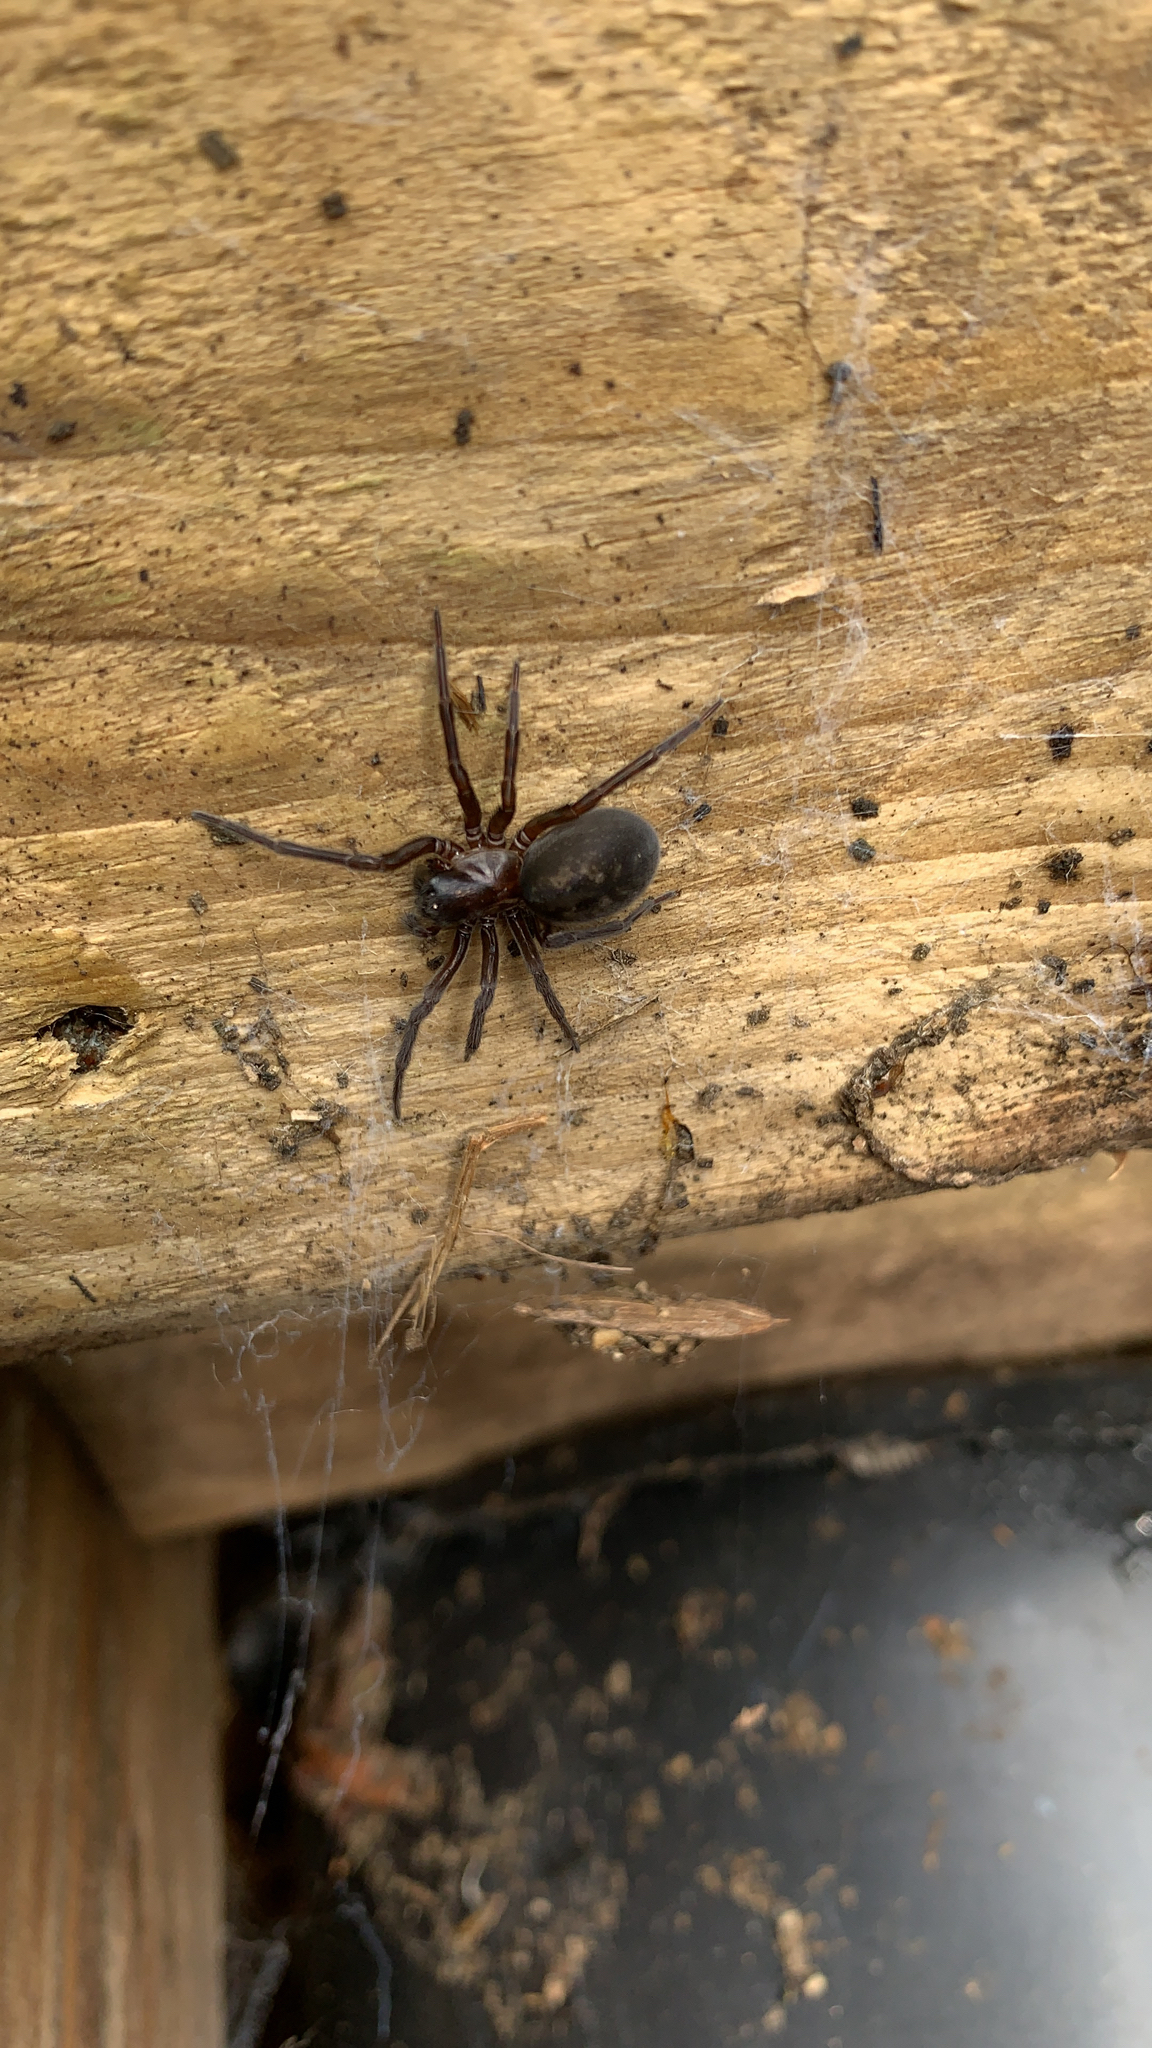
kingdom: Animalia
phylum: Arthropoda
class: Arachnida
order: Araneae
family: Amaurobiidae
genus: Amaurobius
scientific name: Amaurobius ferox
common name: Black laceweaver
